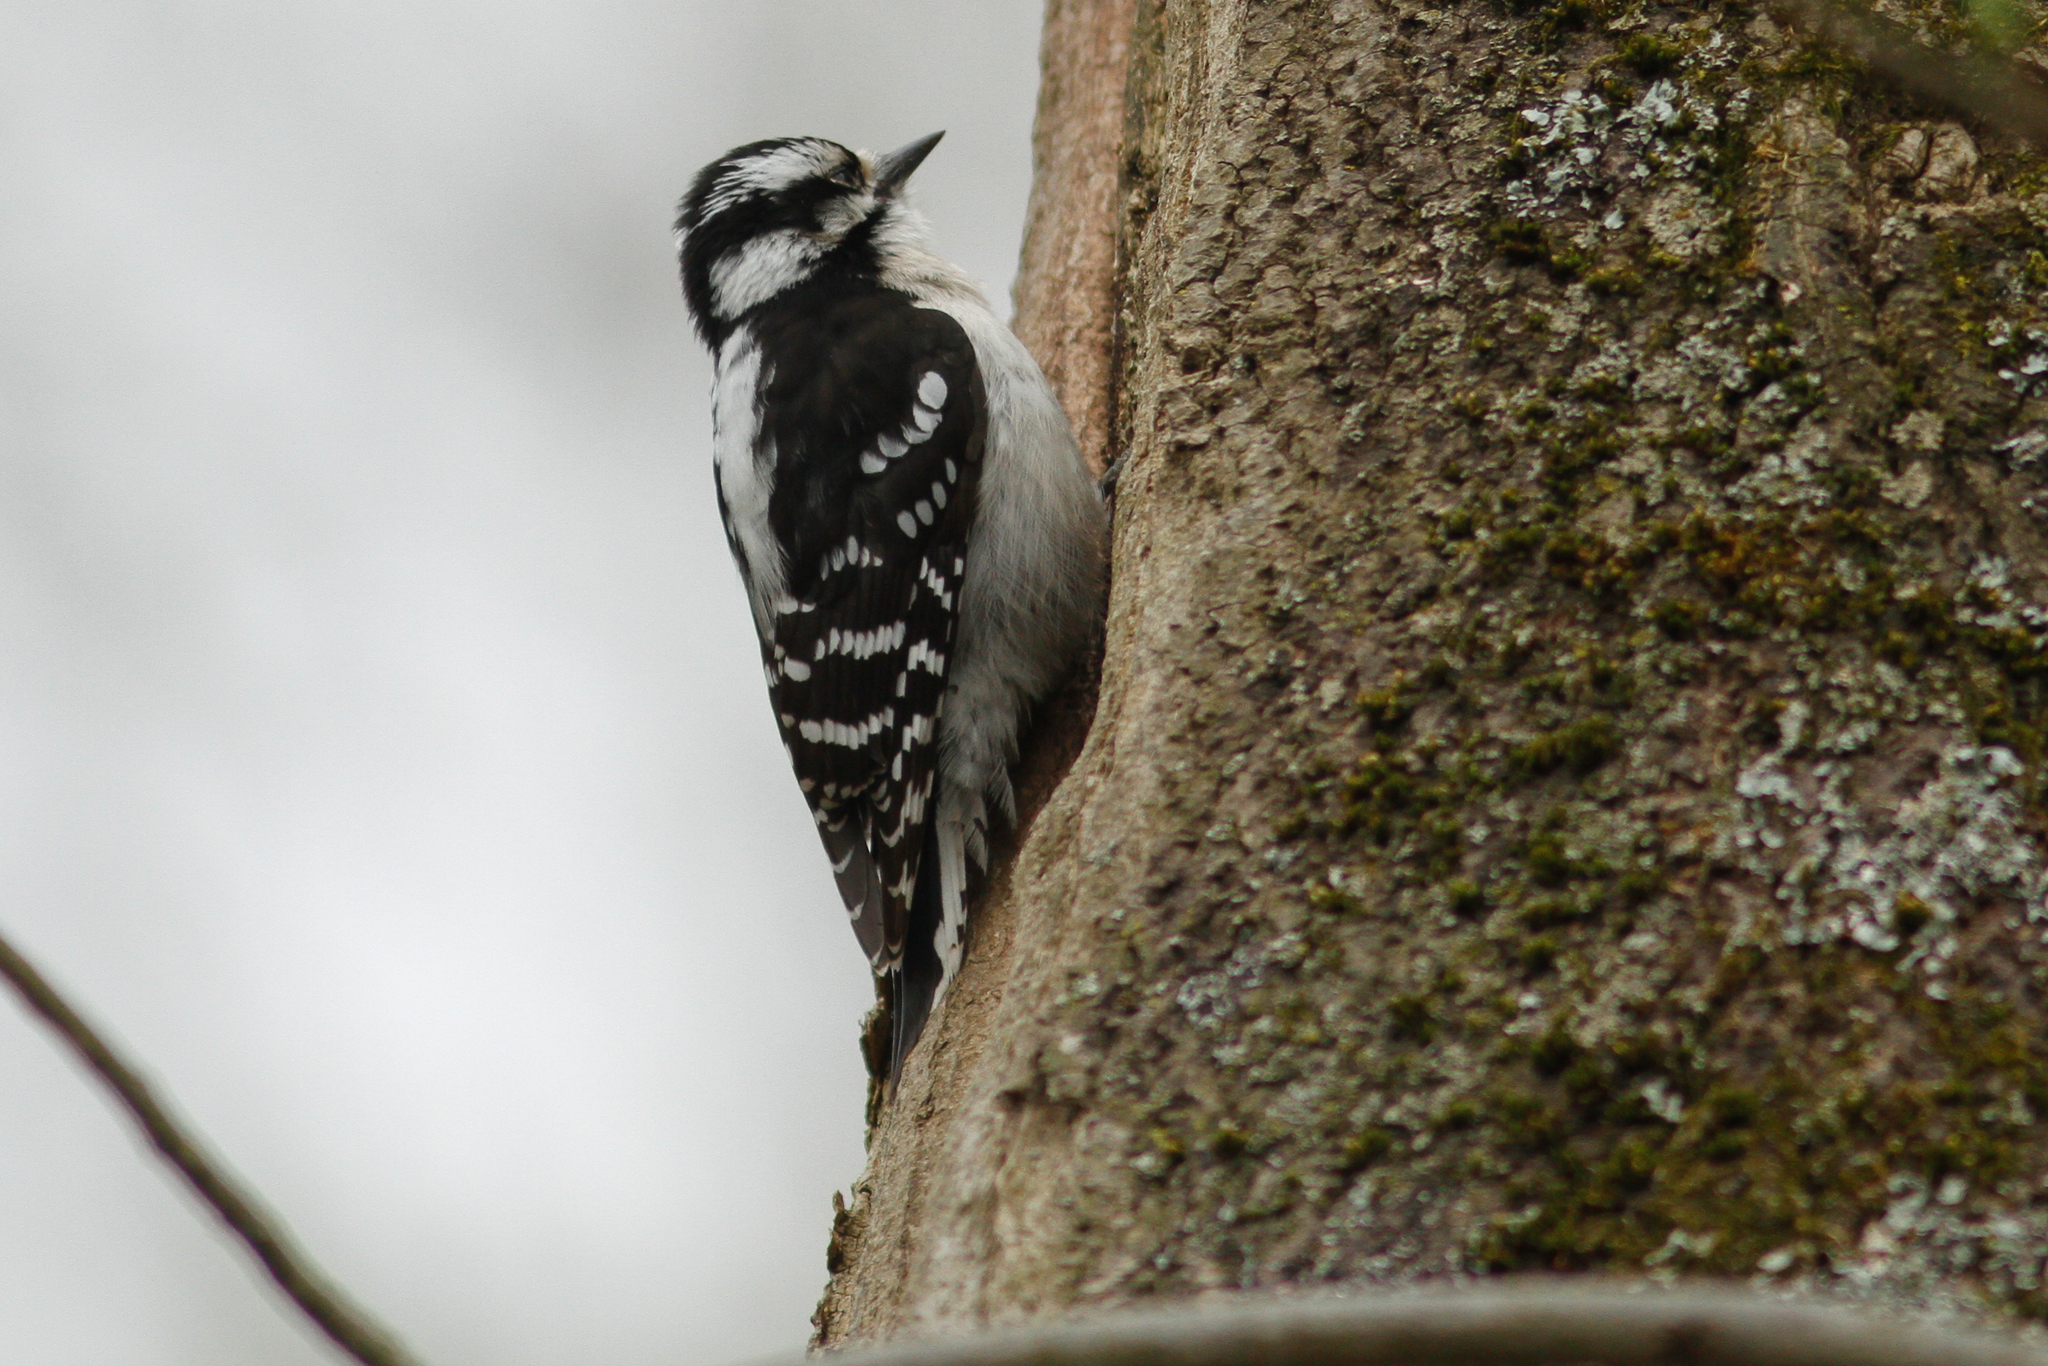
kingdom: Animalia
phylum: Chordata
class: Aves
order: Piciformes
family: Picidae
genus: Dryobates
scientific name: Dryobates pubescens
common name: Downy woodpecker
